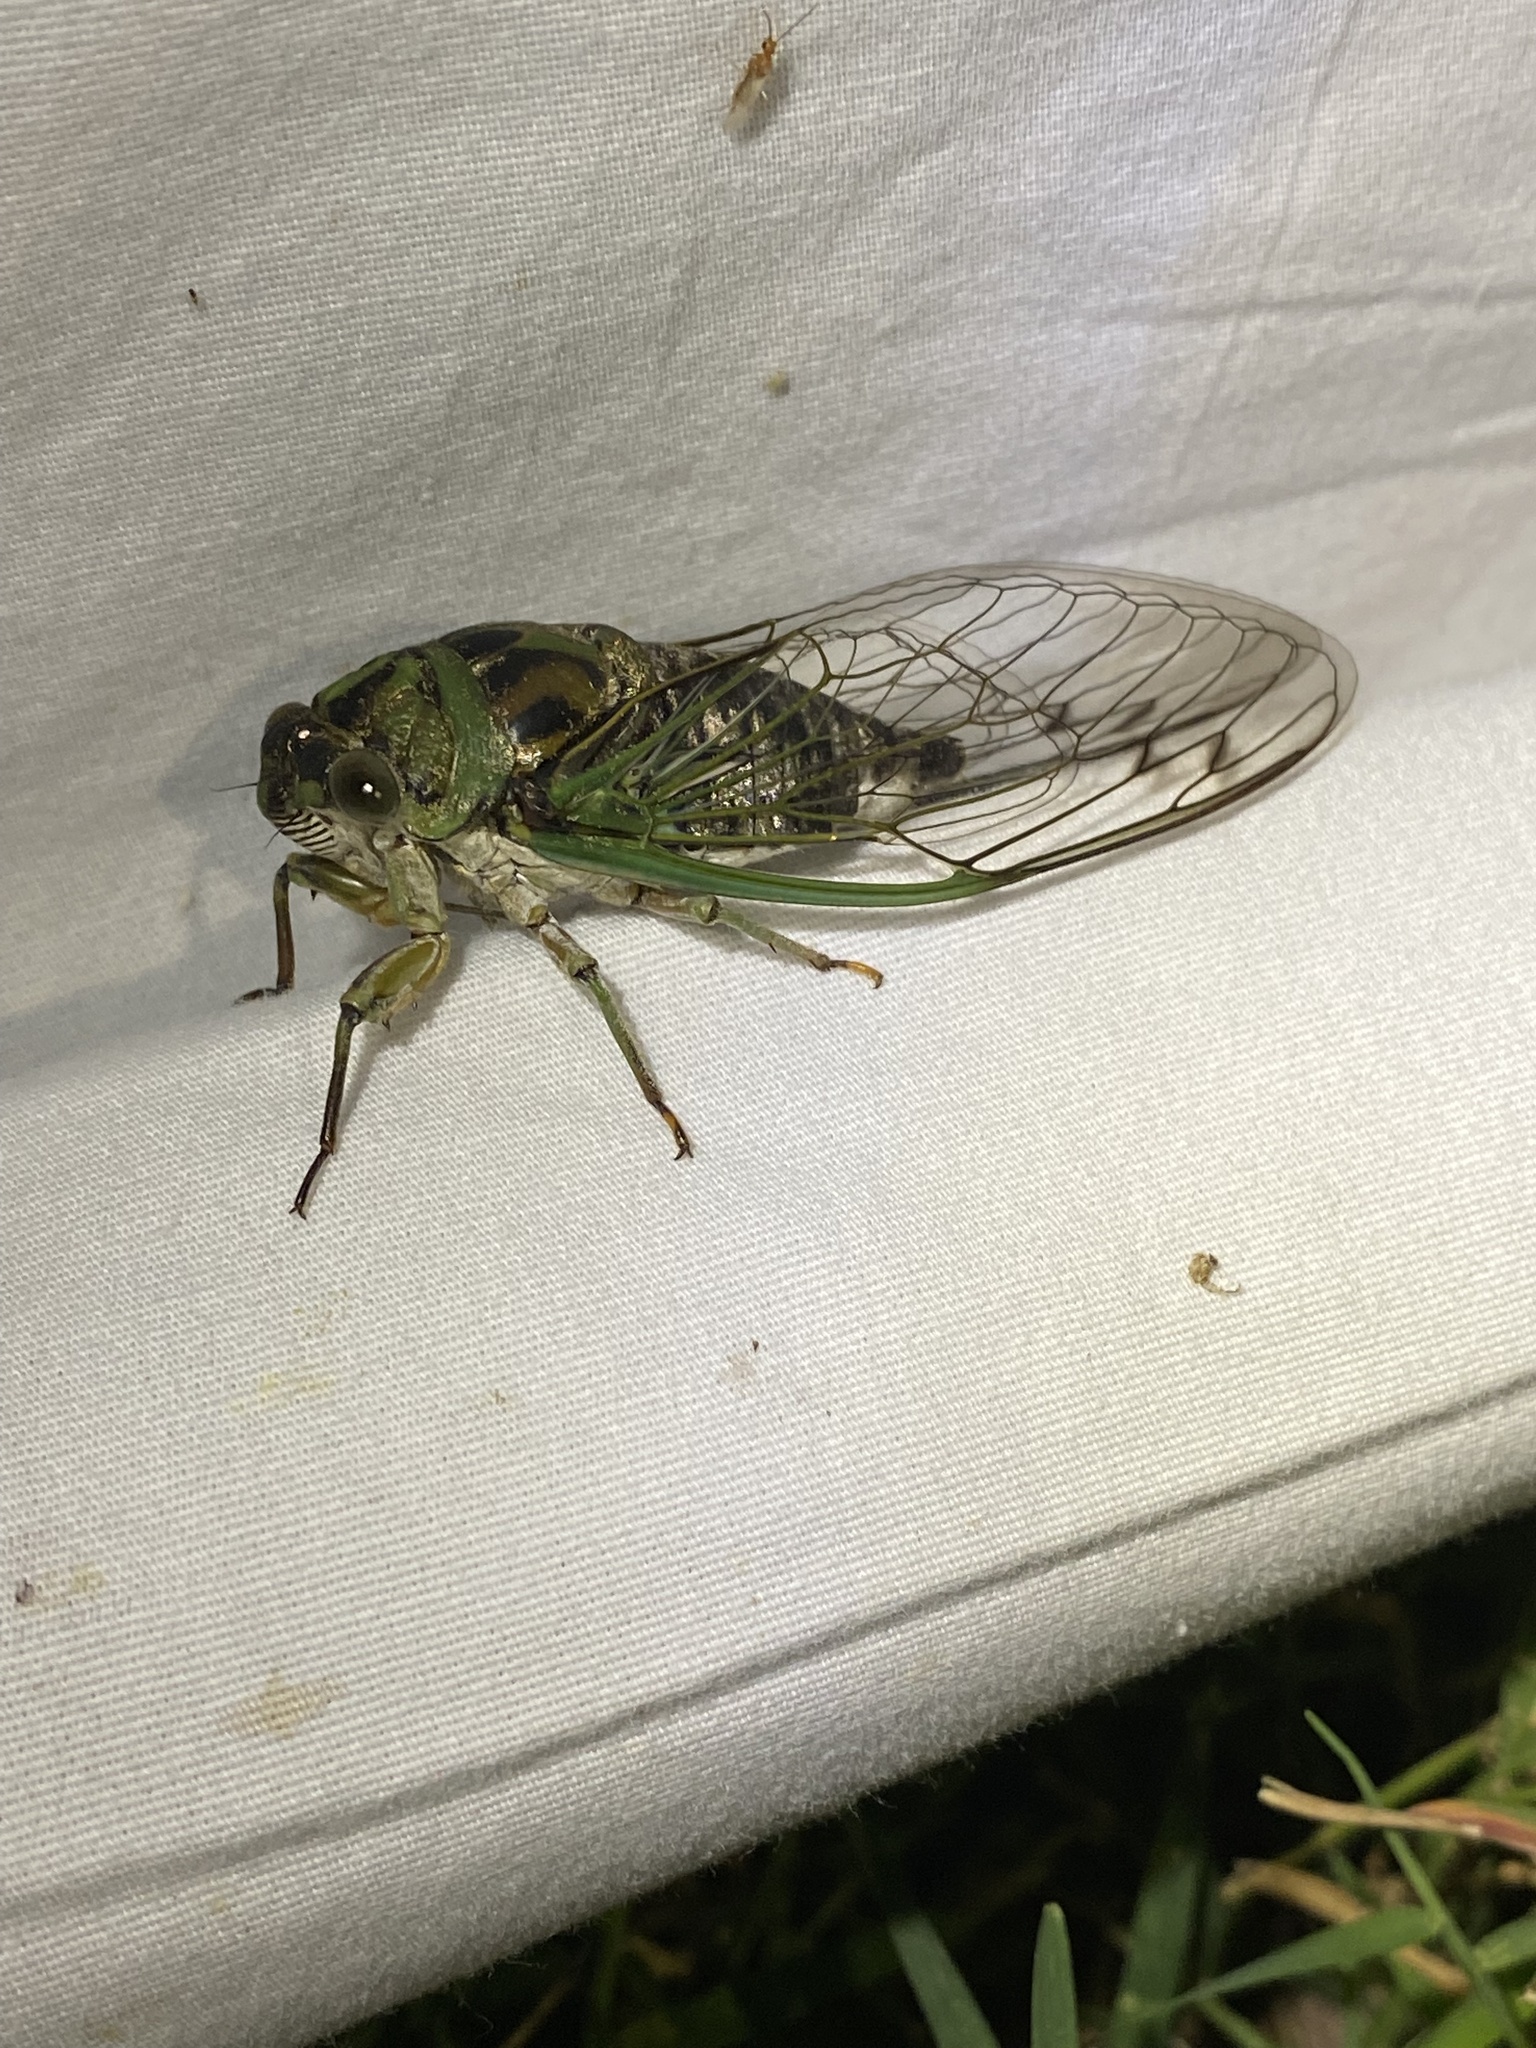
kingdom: Animalia
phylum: Arthropoda
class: Insecta
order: Hemiptera
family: Cicadidae
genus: Neotibicen
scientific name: Neotibicen linnei
